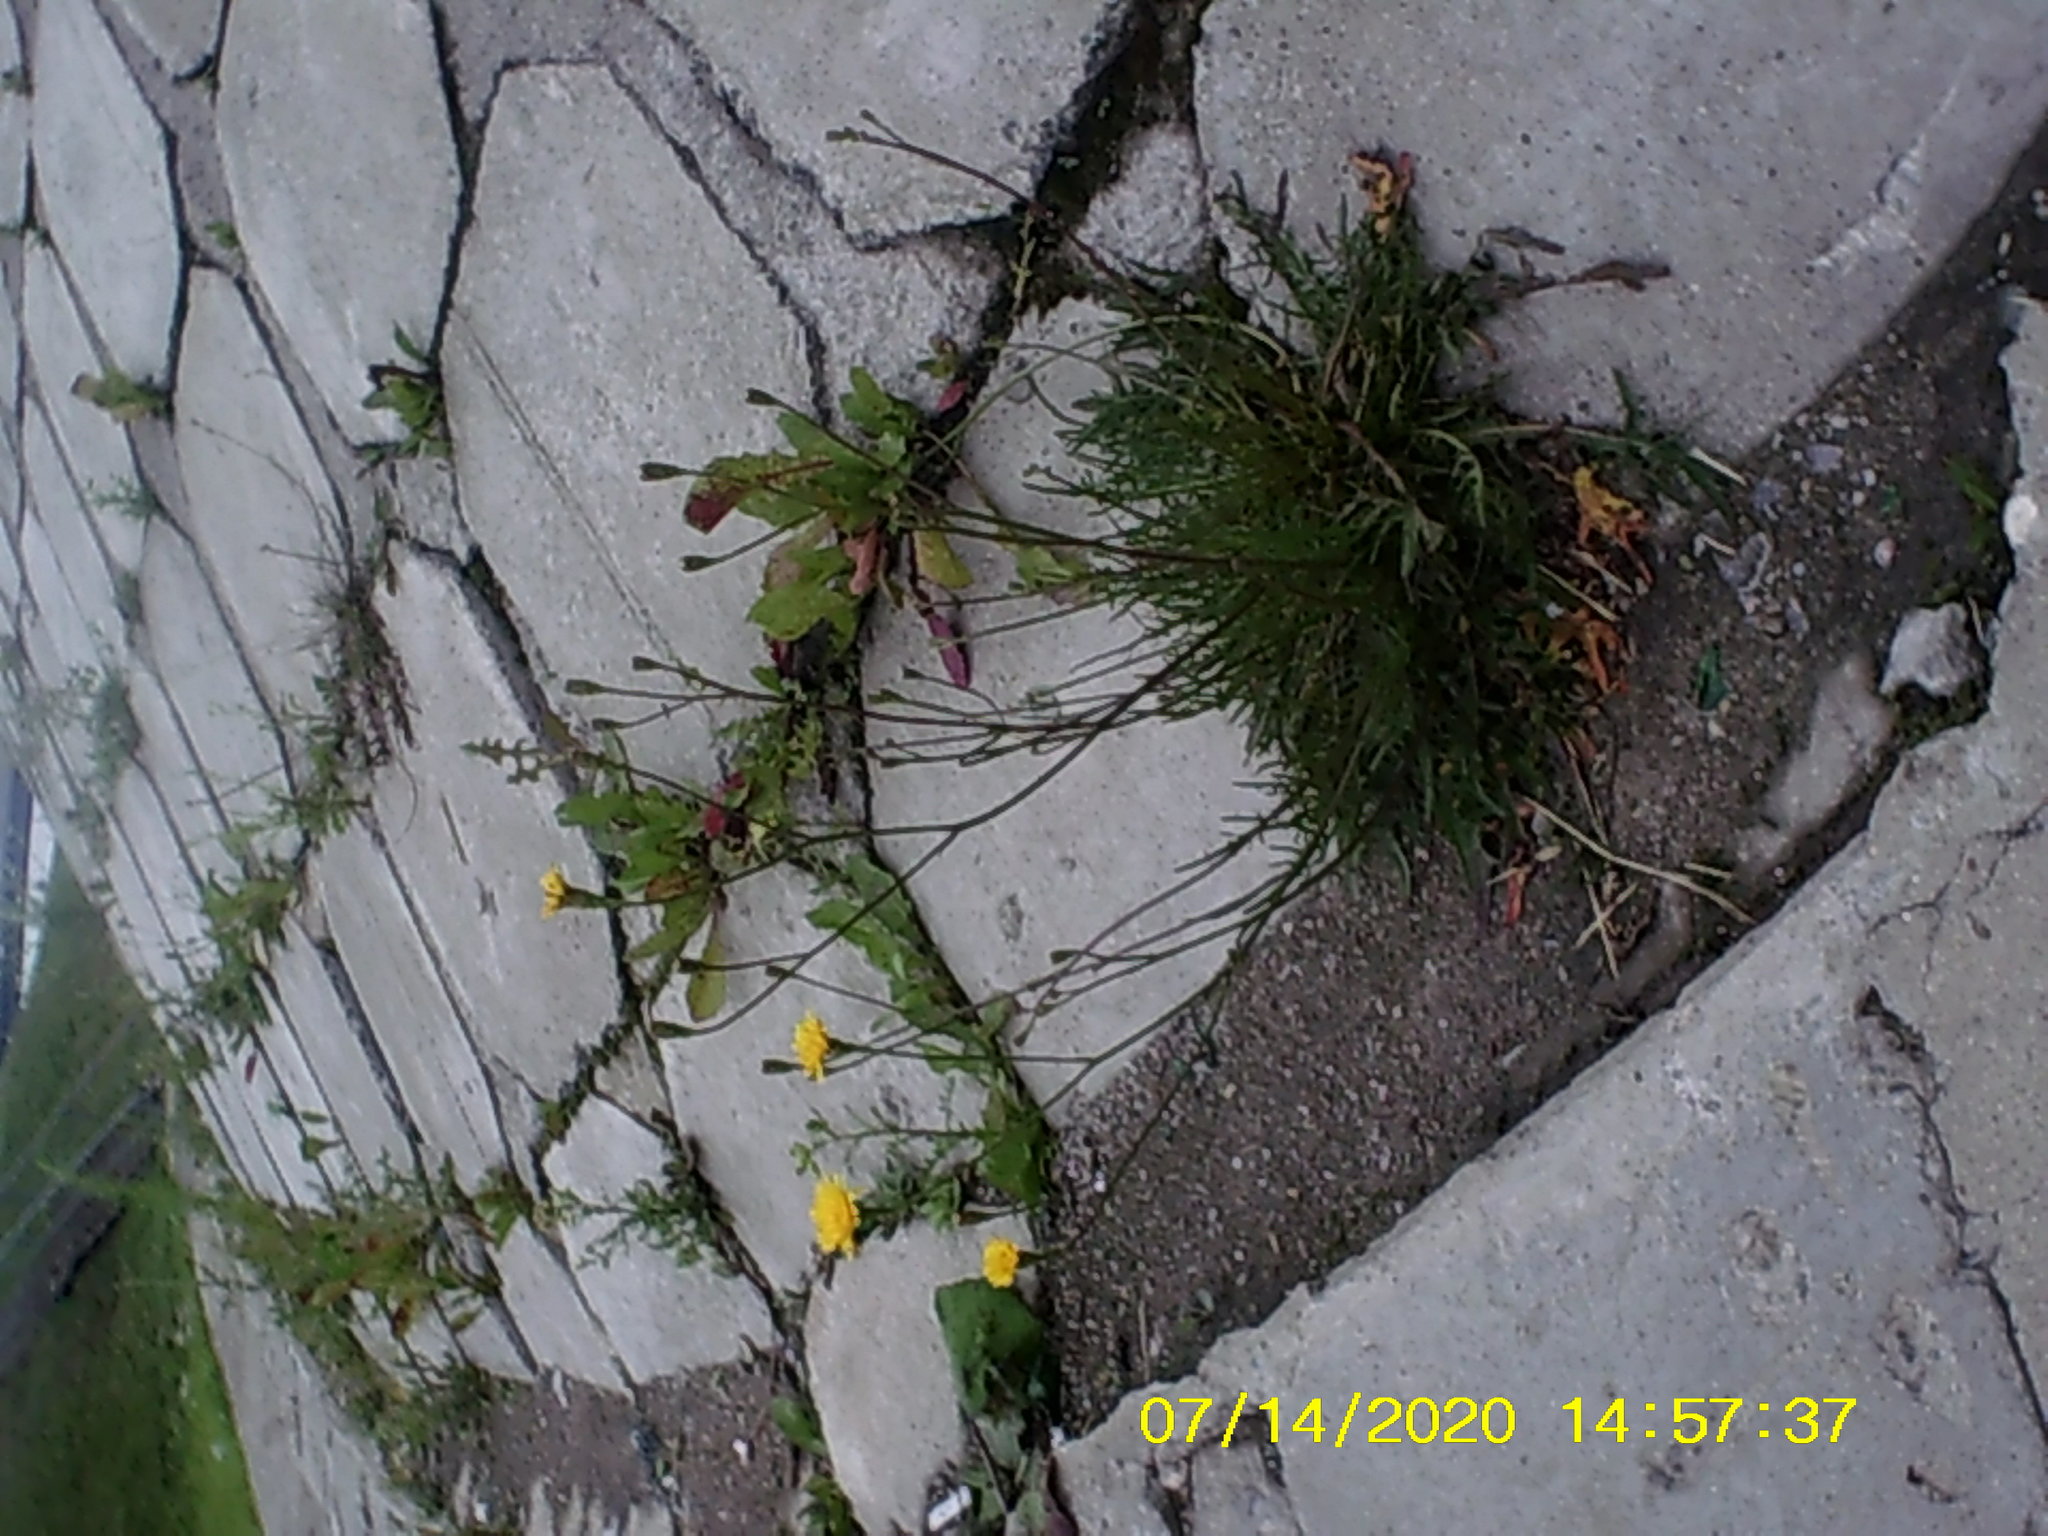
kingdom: Plantae
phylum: Tracheophyta
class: Magnoliopsida
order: Asterales
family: Asteraceae
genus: Scorzoneroides
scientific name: Scorzoneroides autumnalis
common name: Autumn hawkbit
